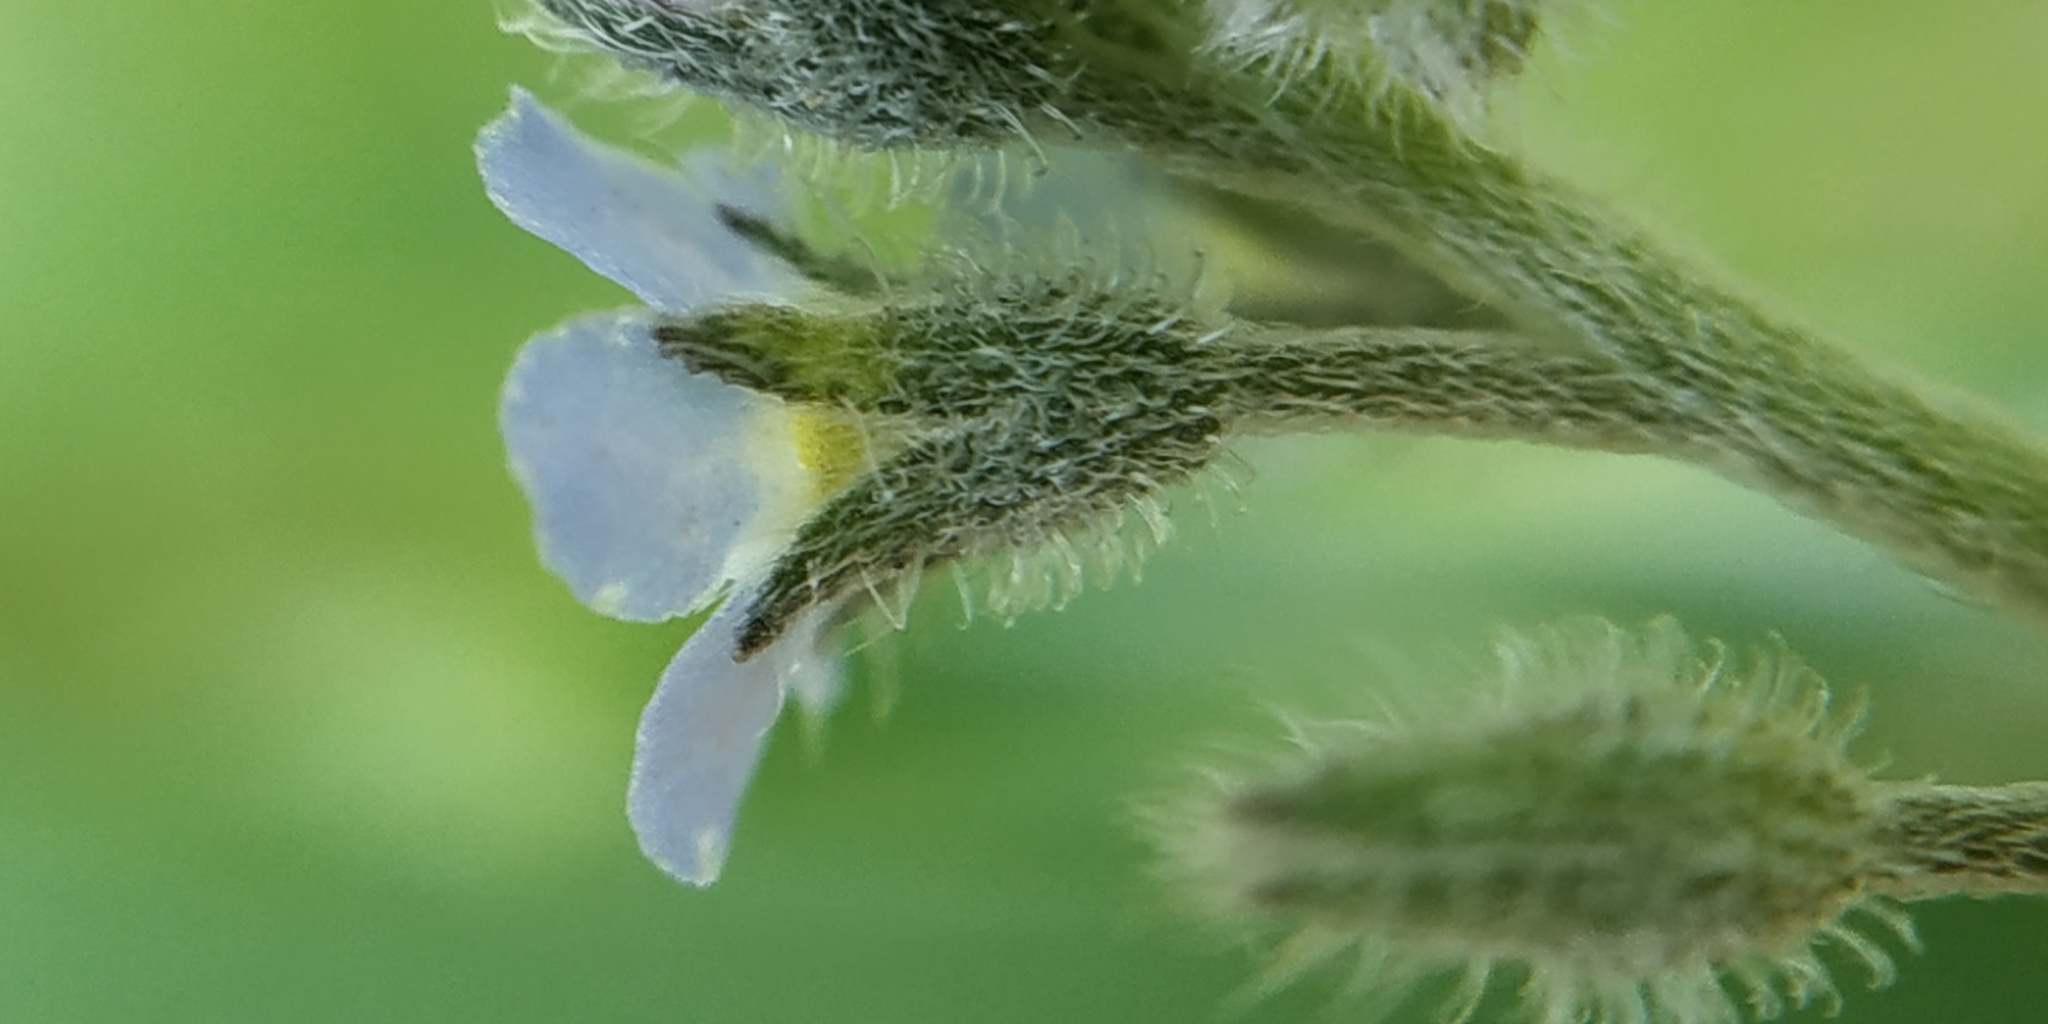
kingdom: Plantae
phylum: Tracheophyta
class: Magnoliopsida
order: Boraginales
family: Boraginaceae
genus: Myosotis
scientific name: Myosotis arvensis
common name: Field forget-me-not
